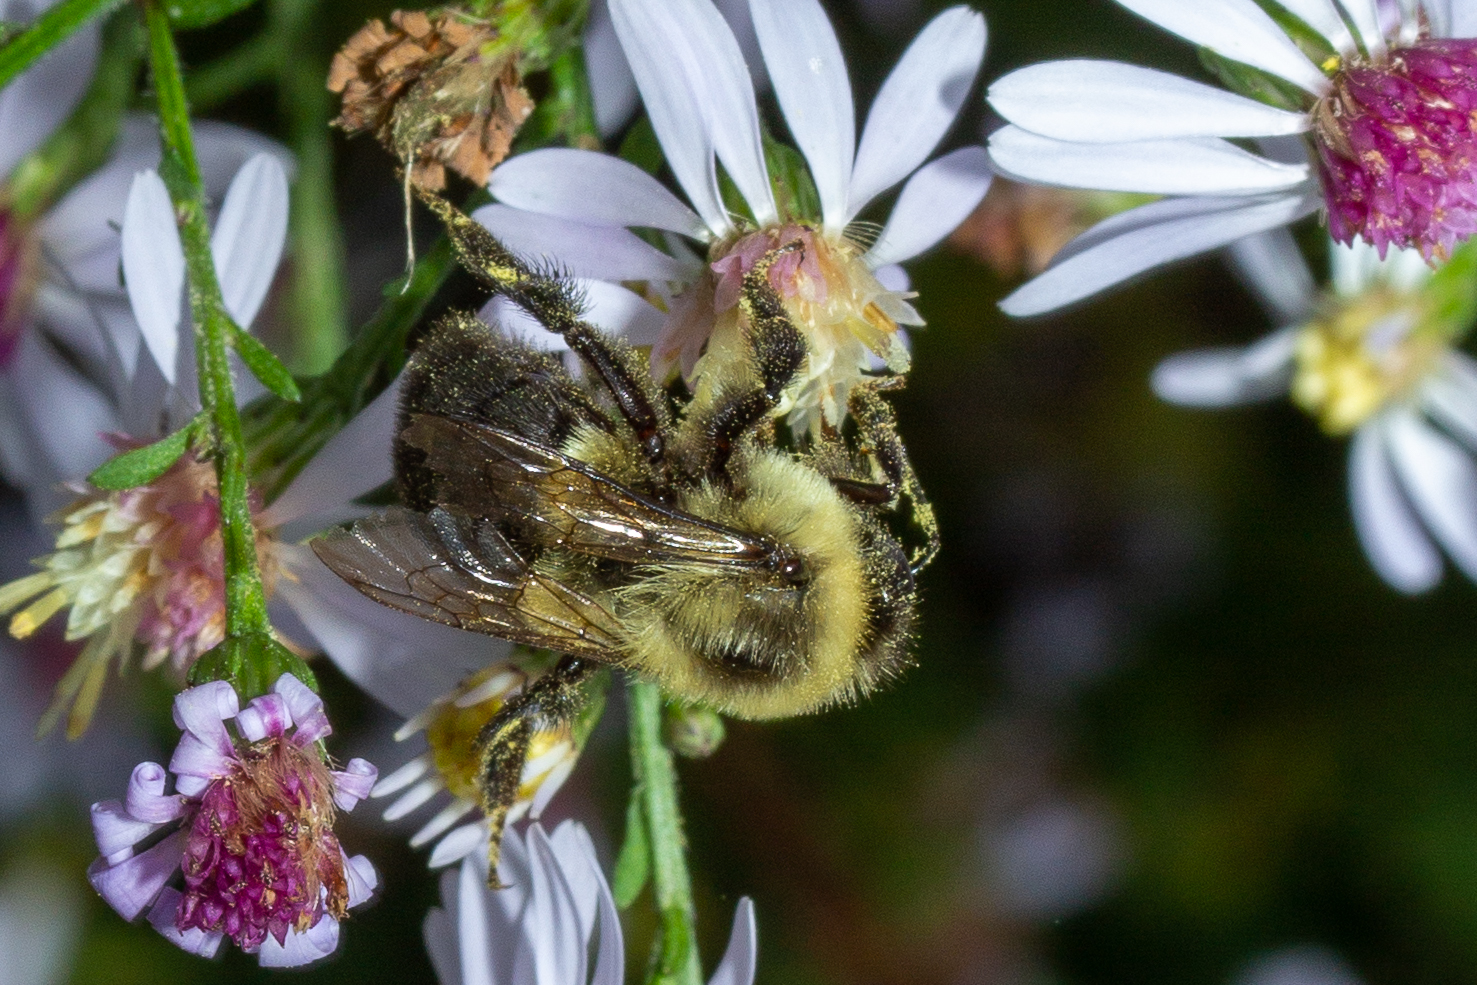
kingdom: Animalia
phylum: Arthropoda
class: Insecta
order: Hymenoptera
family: Apidae
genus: Bombus
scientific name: Bombus impatiens
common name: Common eastern bumble bee
